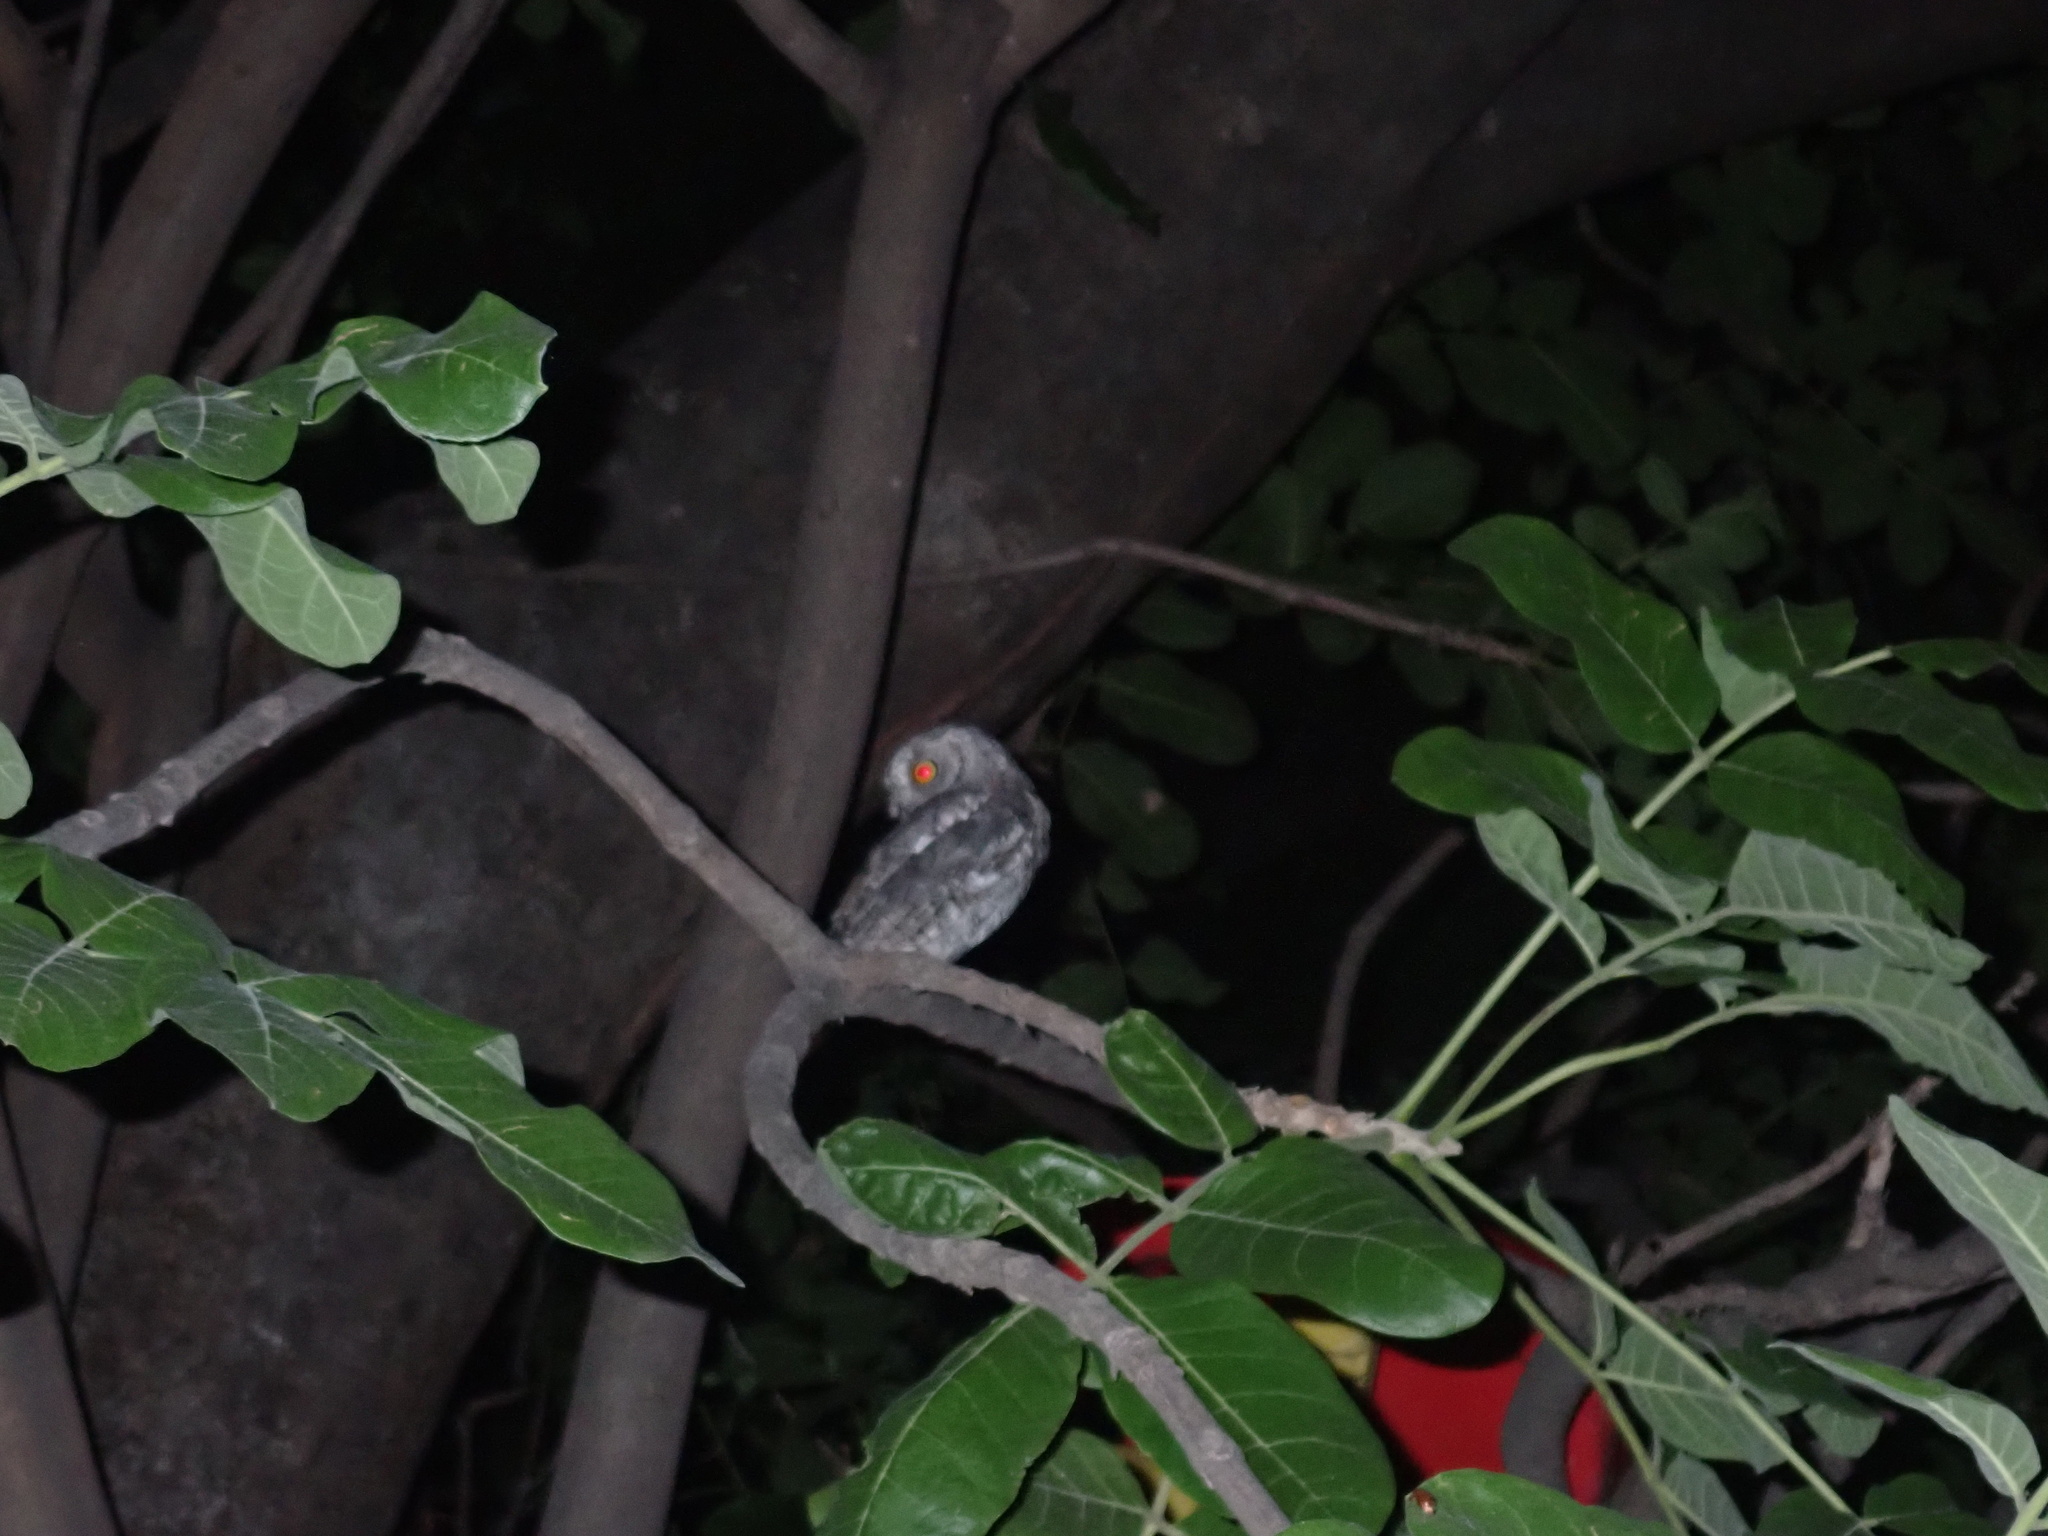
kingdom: Animalia
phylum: Chordata
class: Aves
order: Strigiformes
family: Strigidae
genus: Otus
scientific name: Otus senegalensis
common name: African scops owl
